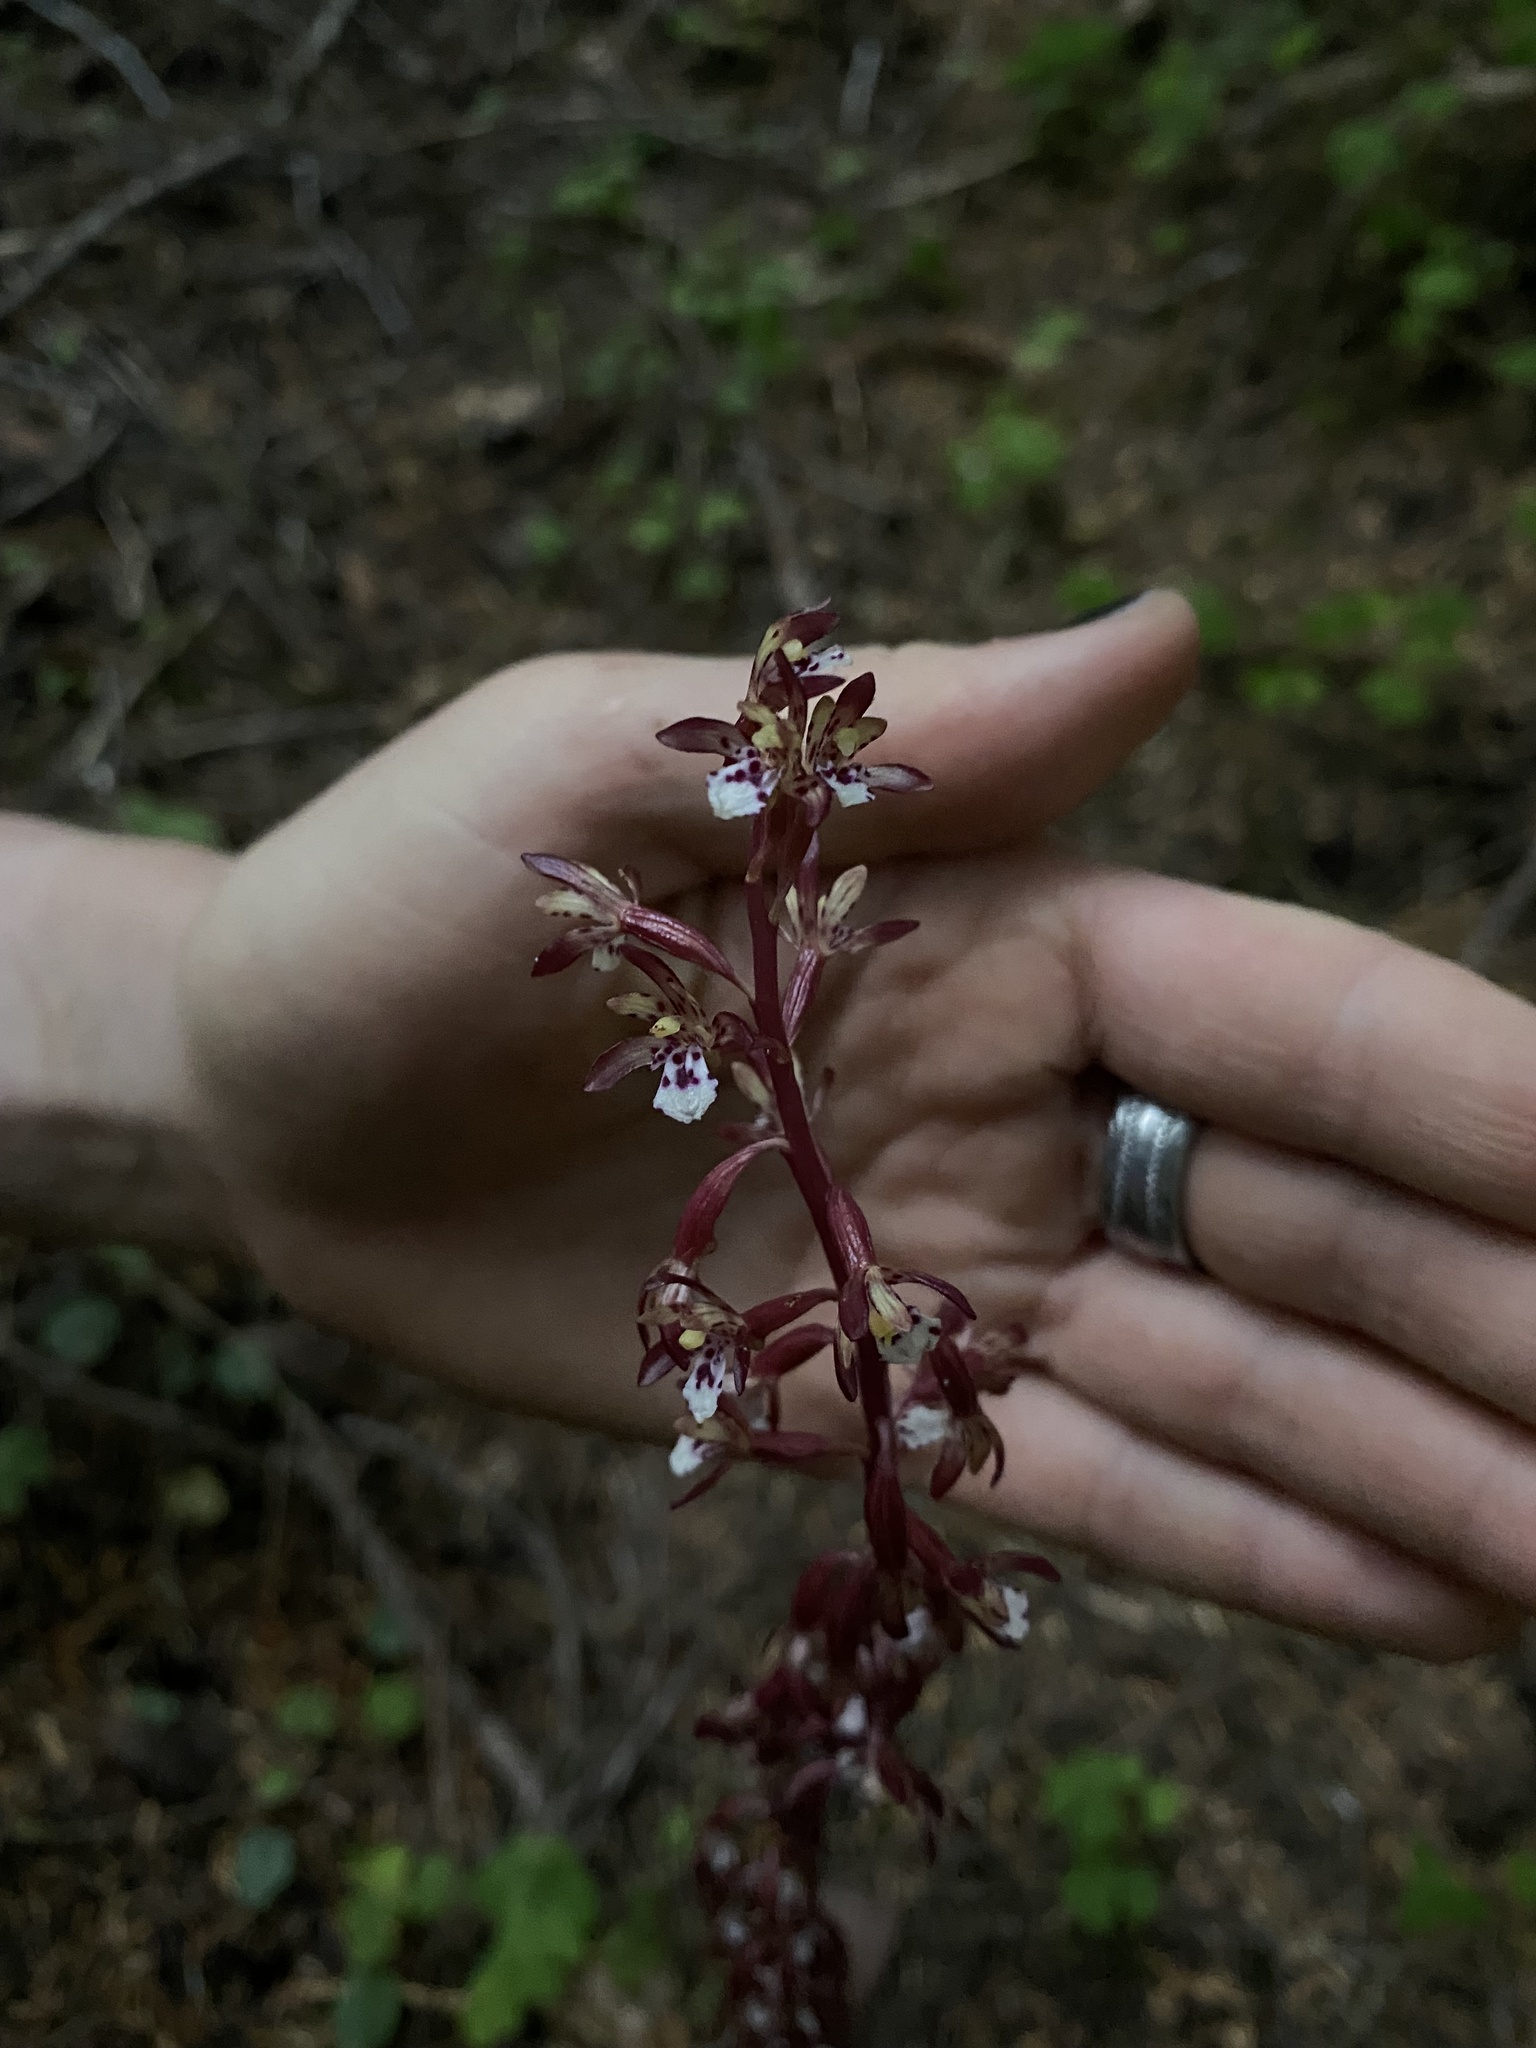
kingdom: Plantae
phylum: Tracheophyta
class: Liliopsida
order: Asparagales
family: Orchidaceae
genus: Corallorhiza
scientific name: Corallorhiza maculata
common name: Spotted coralroot
